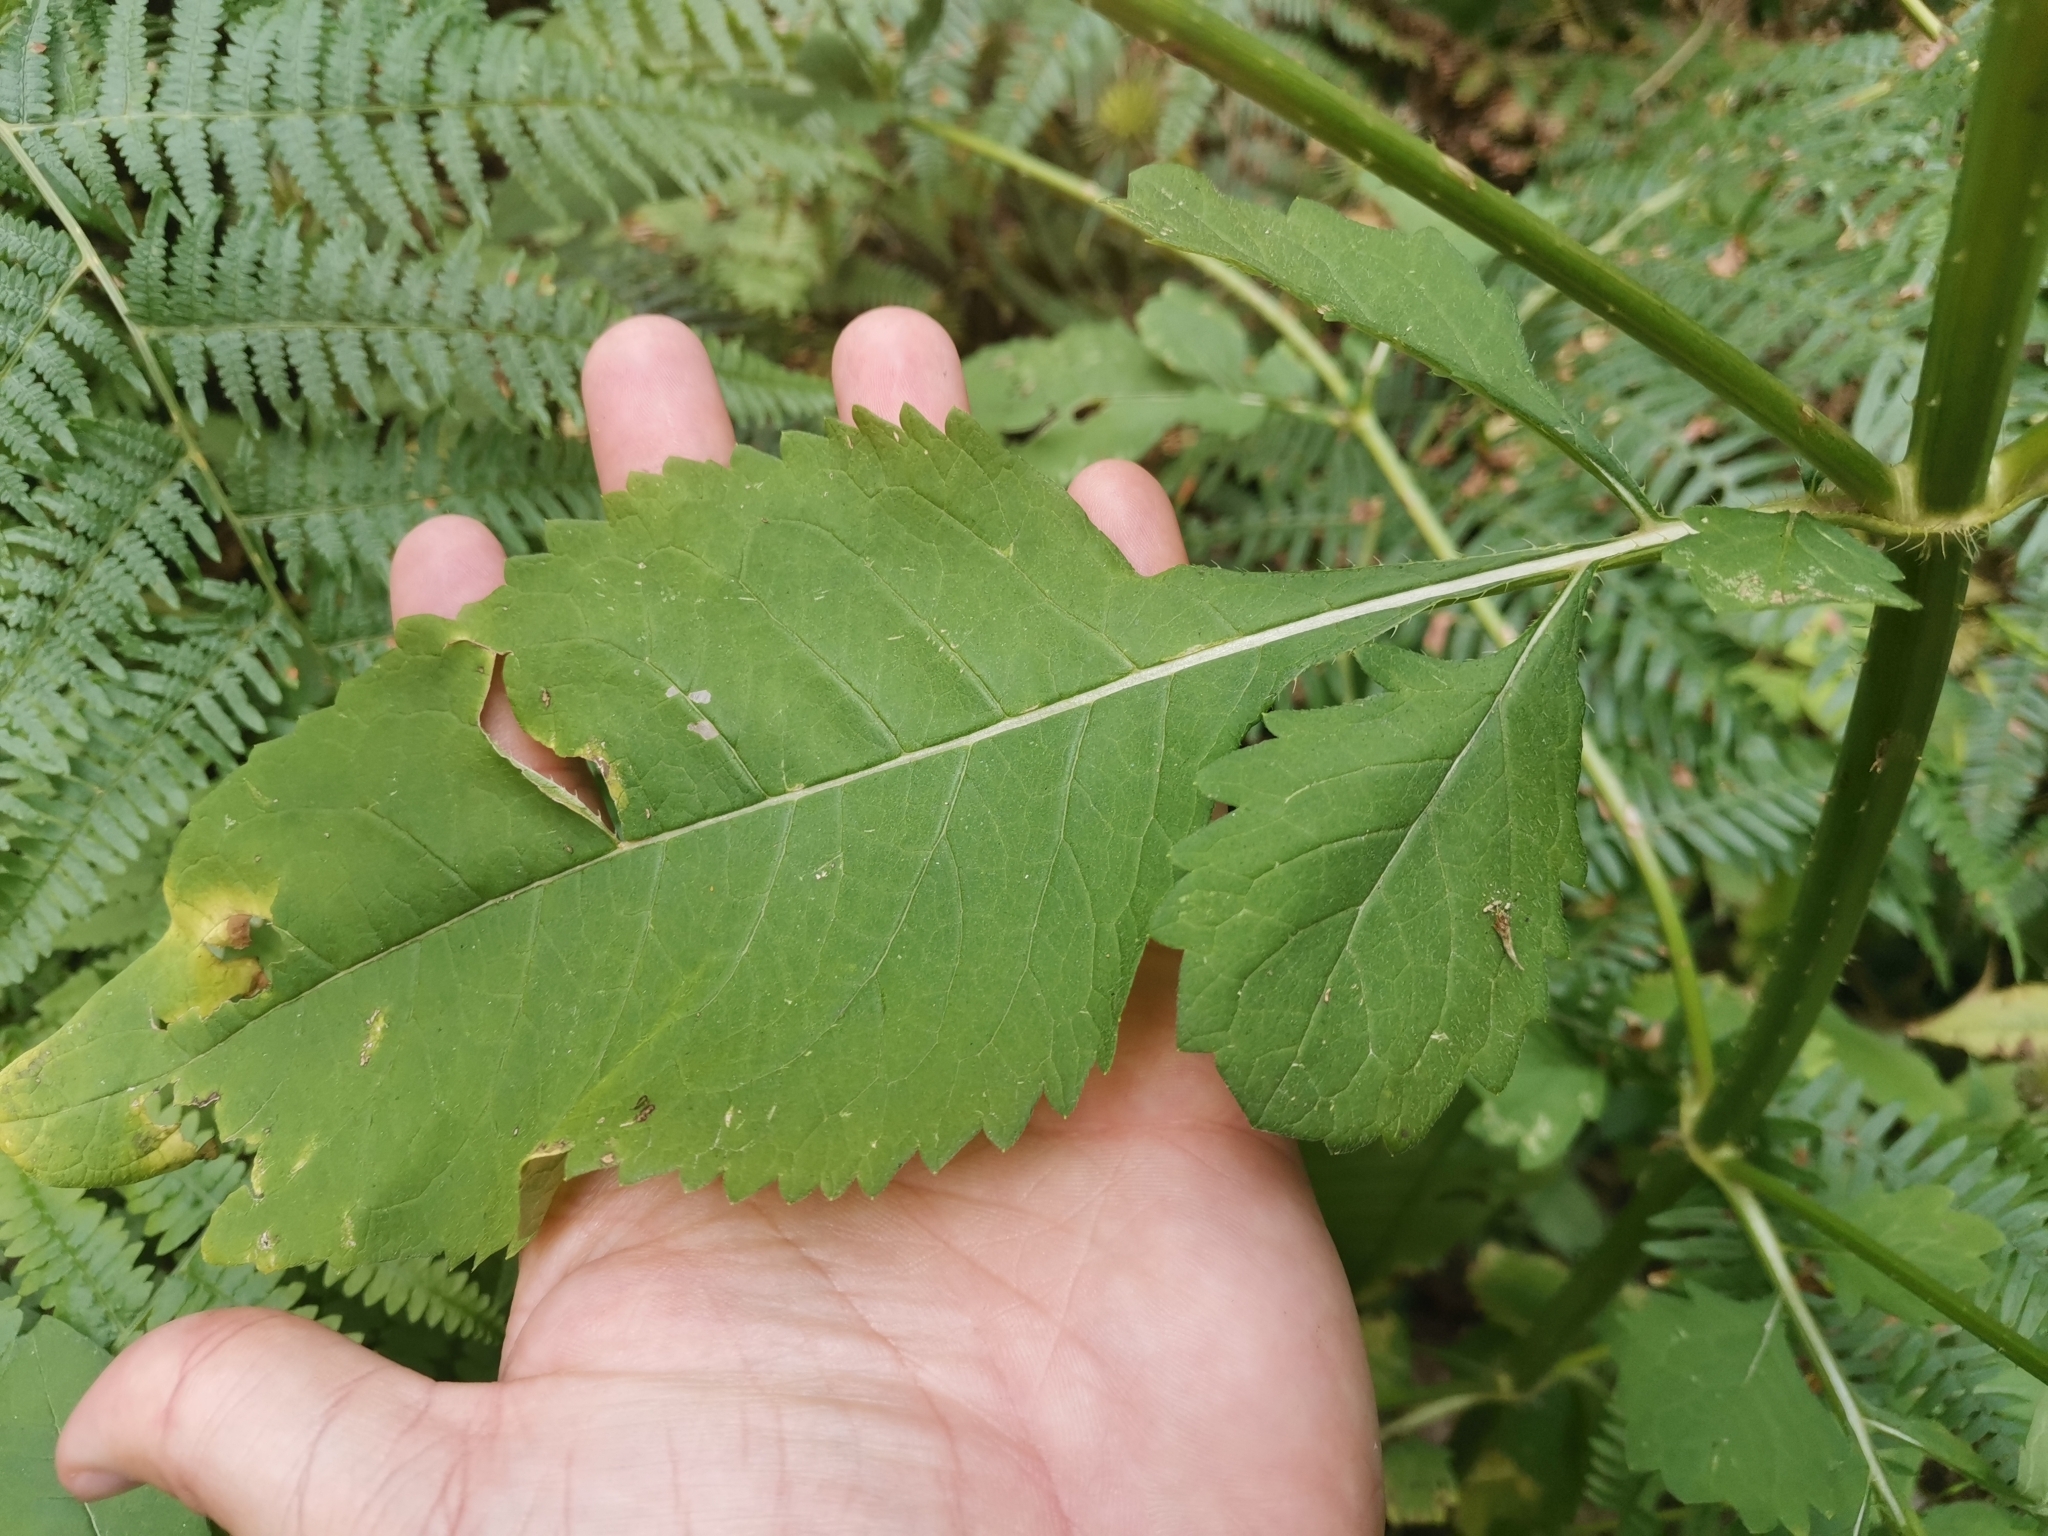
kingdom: Plantae
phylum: Tracheophyta
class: Magnoliopsida
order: Dipsacales
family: Caprifoliaceae
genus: Dipsacus
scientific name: Dipsacus strigosus
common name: Yellow-flowered teasel
